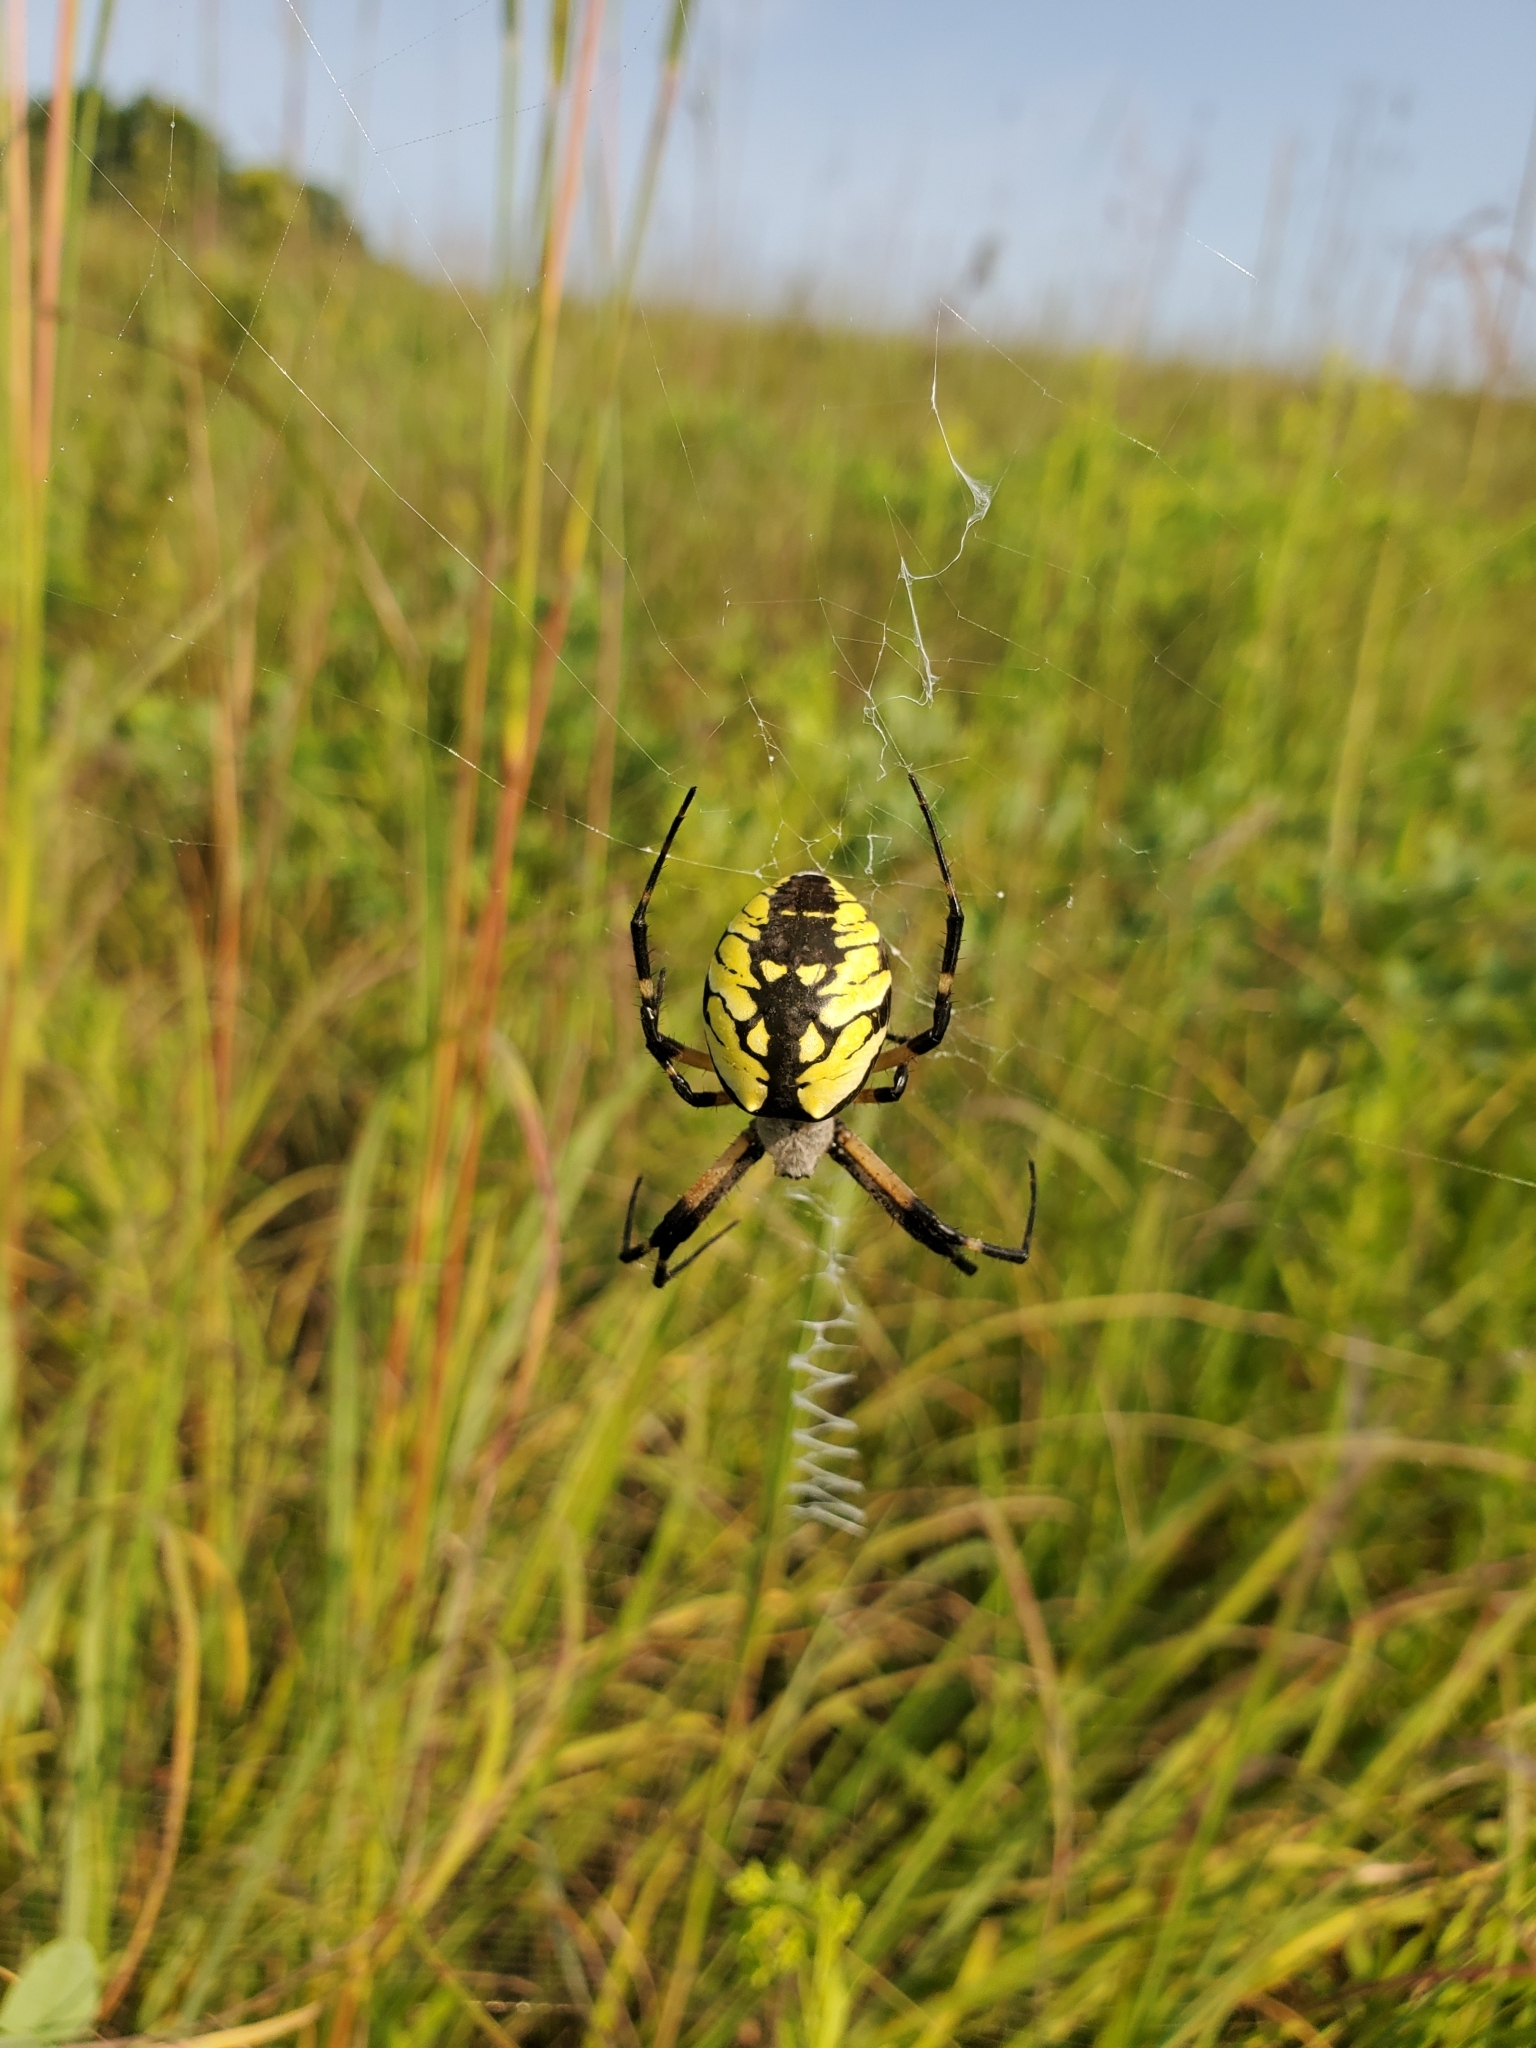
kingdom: Animalia
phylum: Arthropoda
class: Arachnida
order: Araneae
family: Araneidae
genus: Argiope
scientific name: Argiope aurantia
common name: Orb weavers
